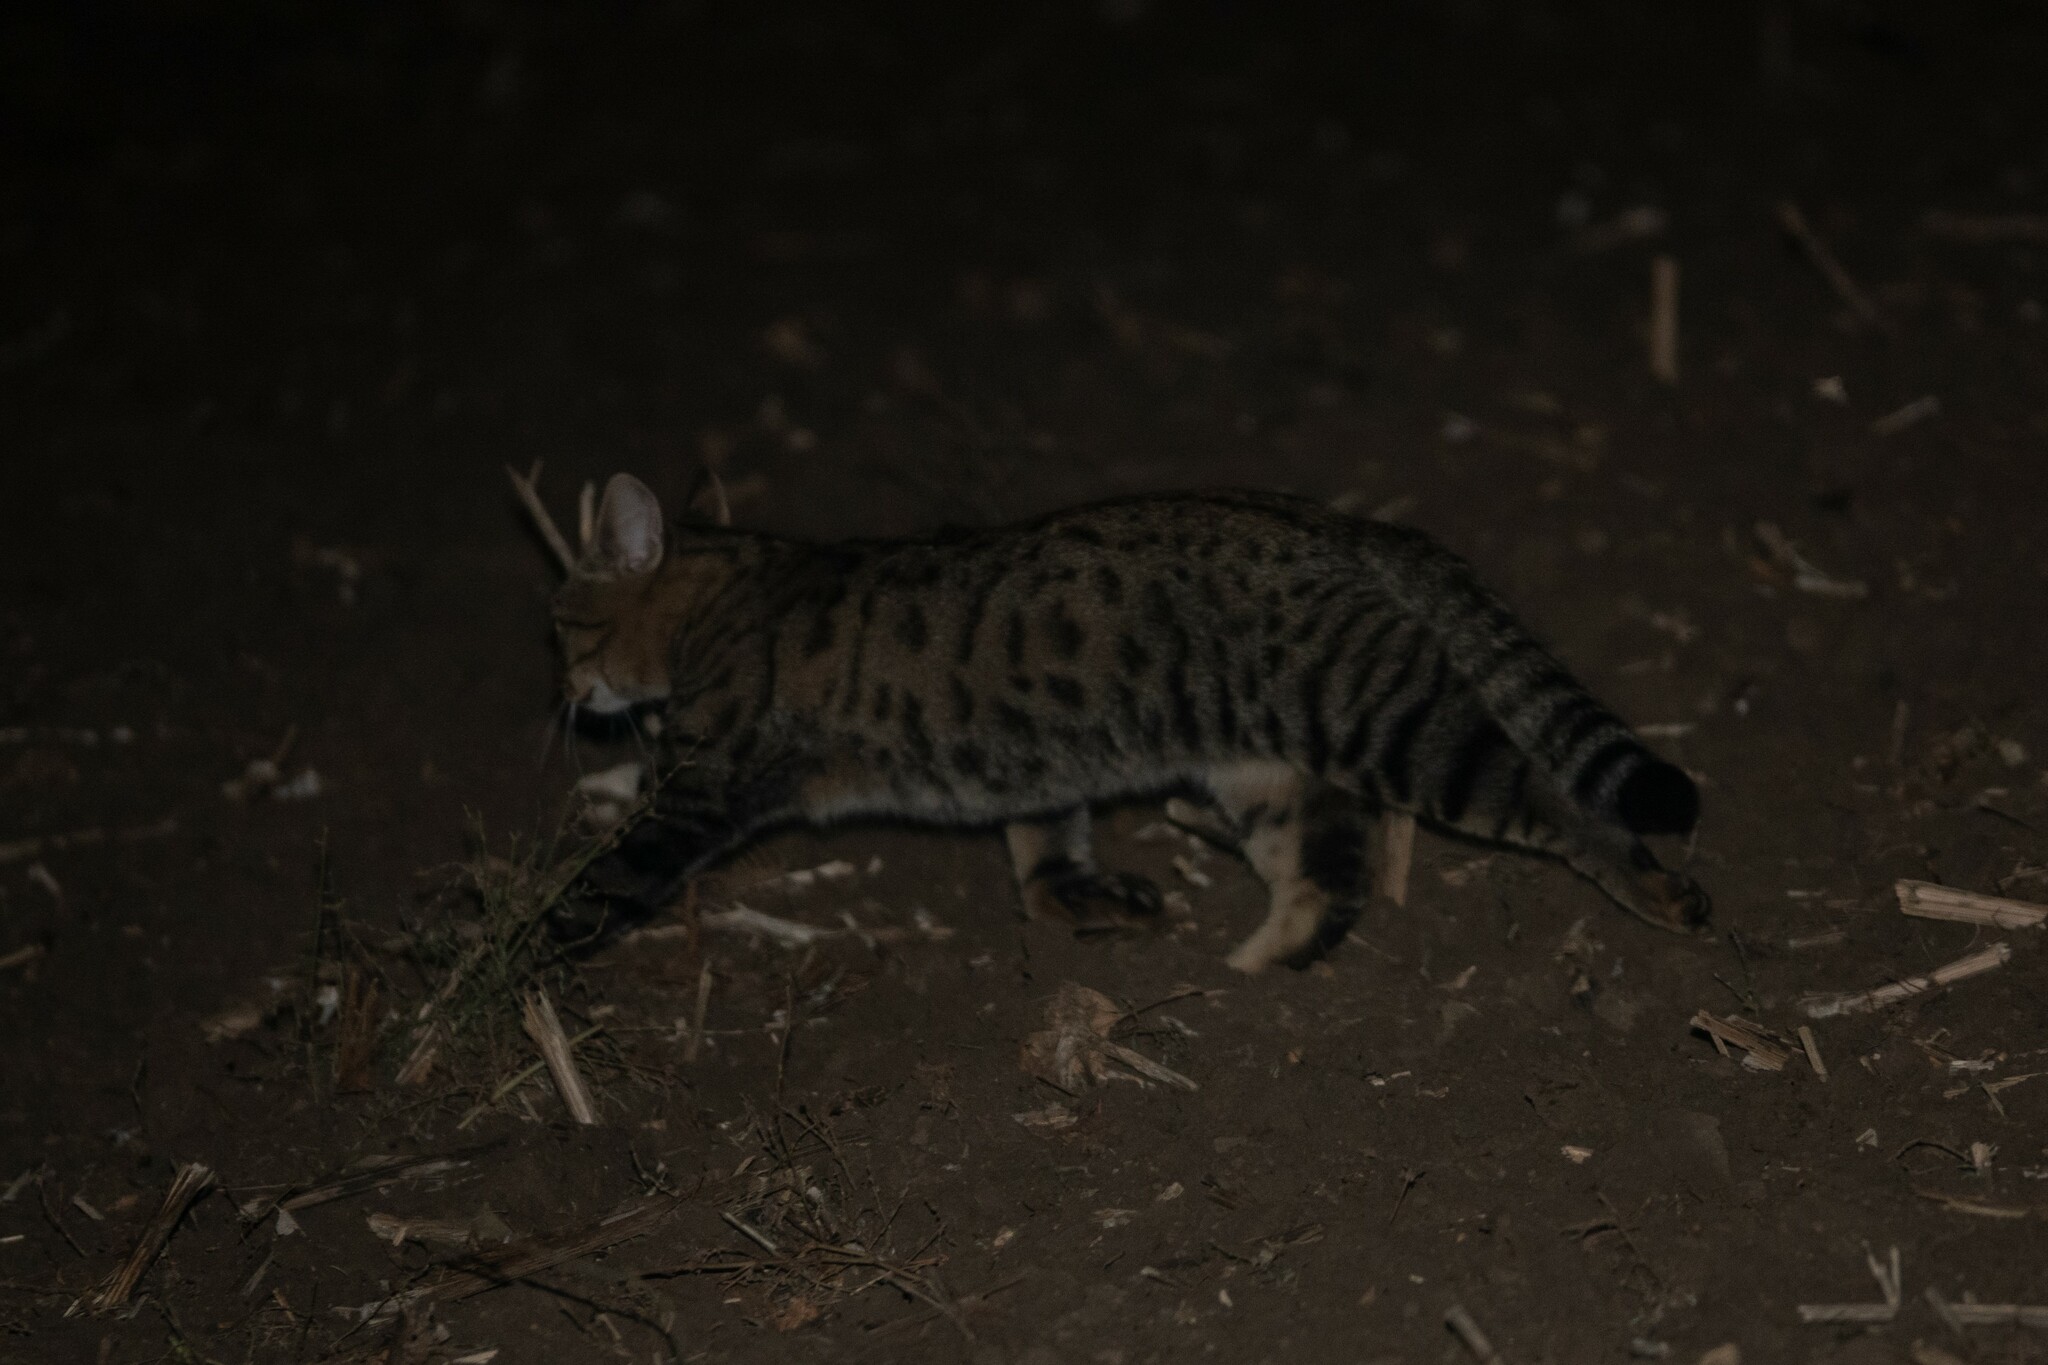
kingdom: Animalia
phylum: Chordata
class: Mammalia
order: Carnivora
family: Felidae
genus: Felis
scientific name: Felis catus
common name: Domestic cat
